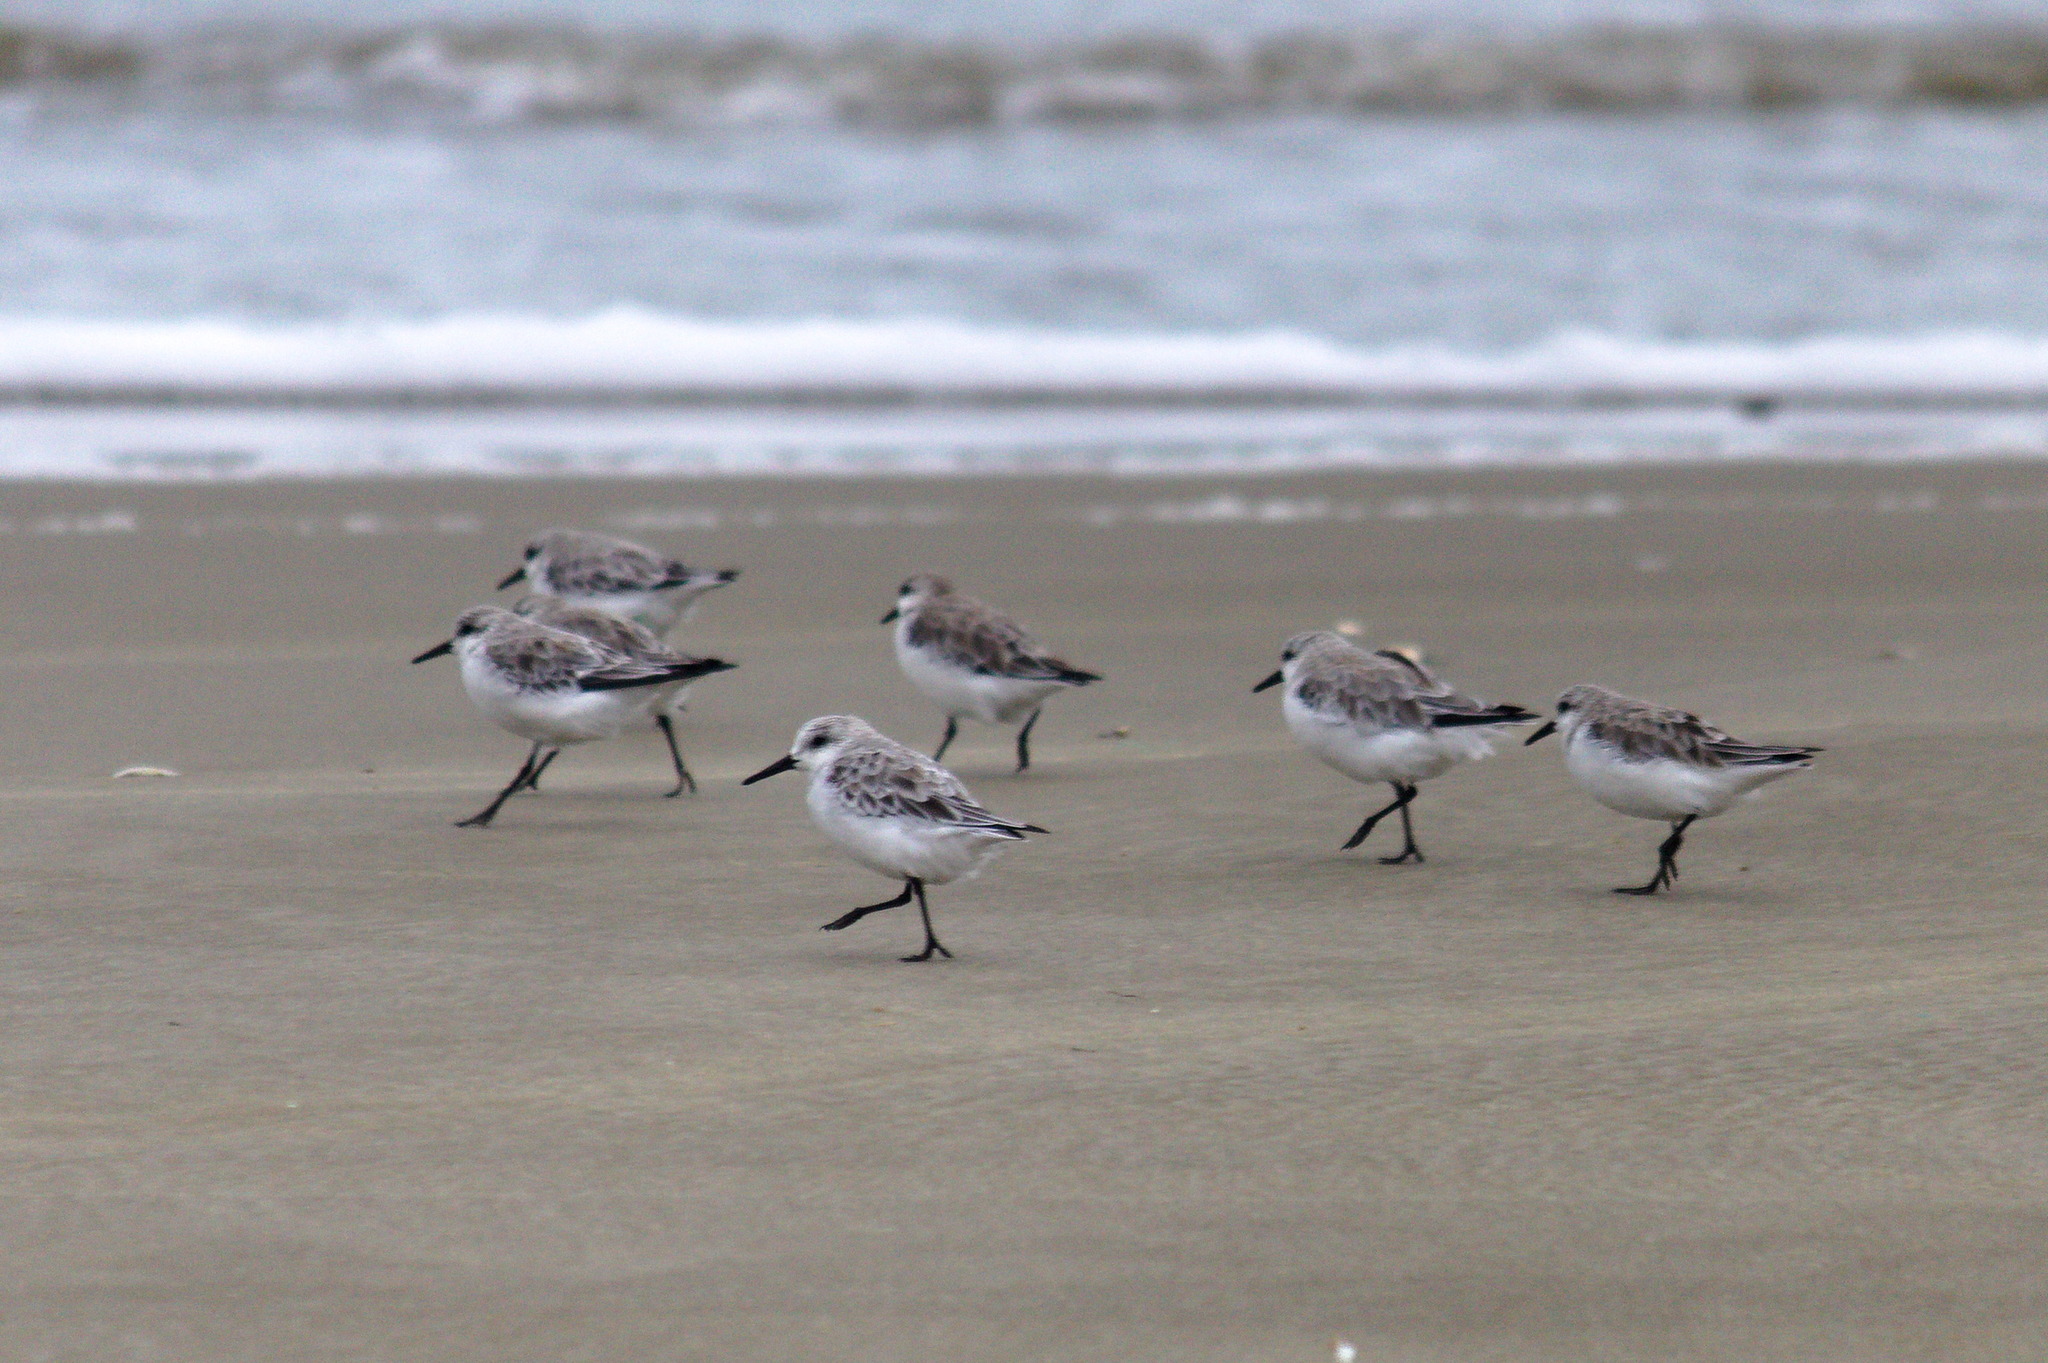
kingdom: Animalia
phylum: Chordata
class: Aves
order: Charadriiformes
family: Scolopacidae
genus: Calidris
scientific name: Calidris alba
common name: Sanderling
